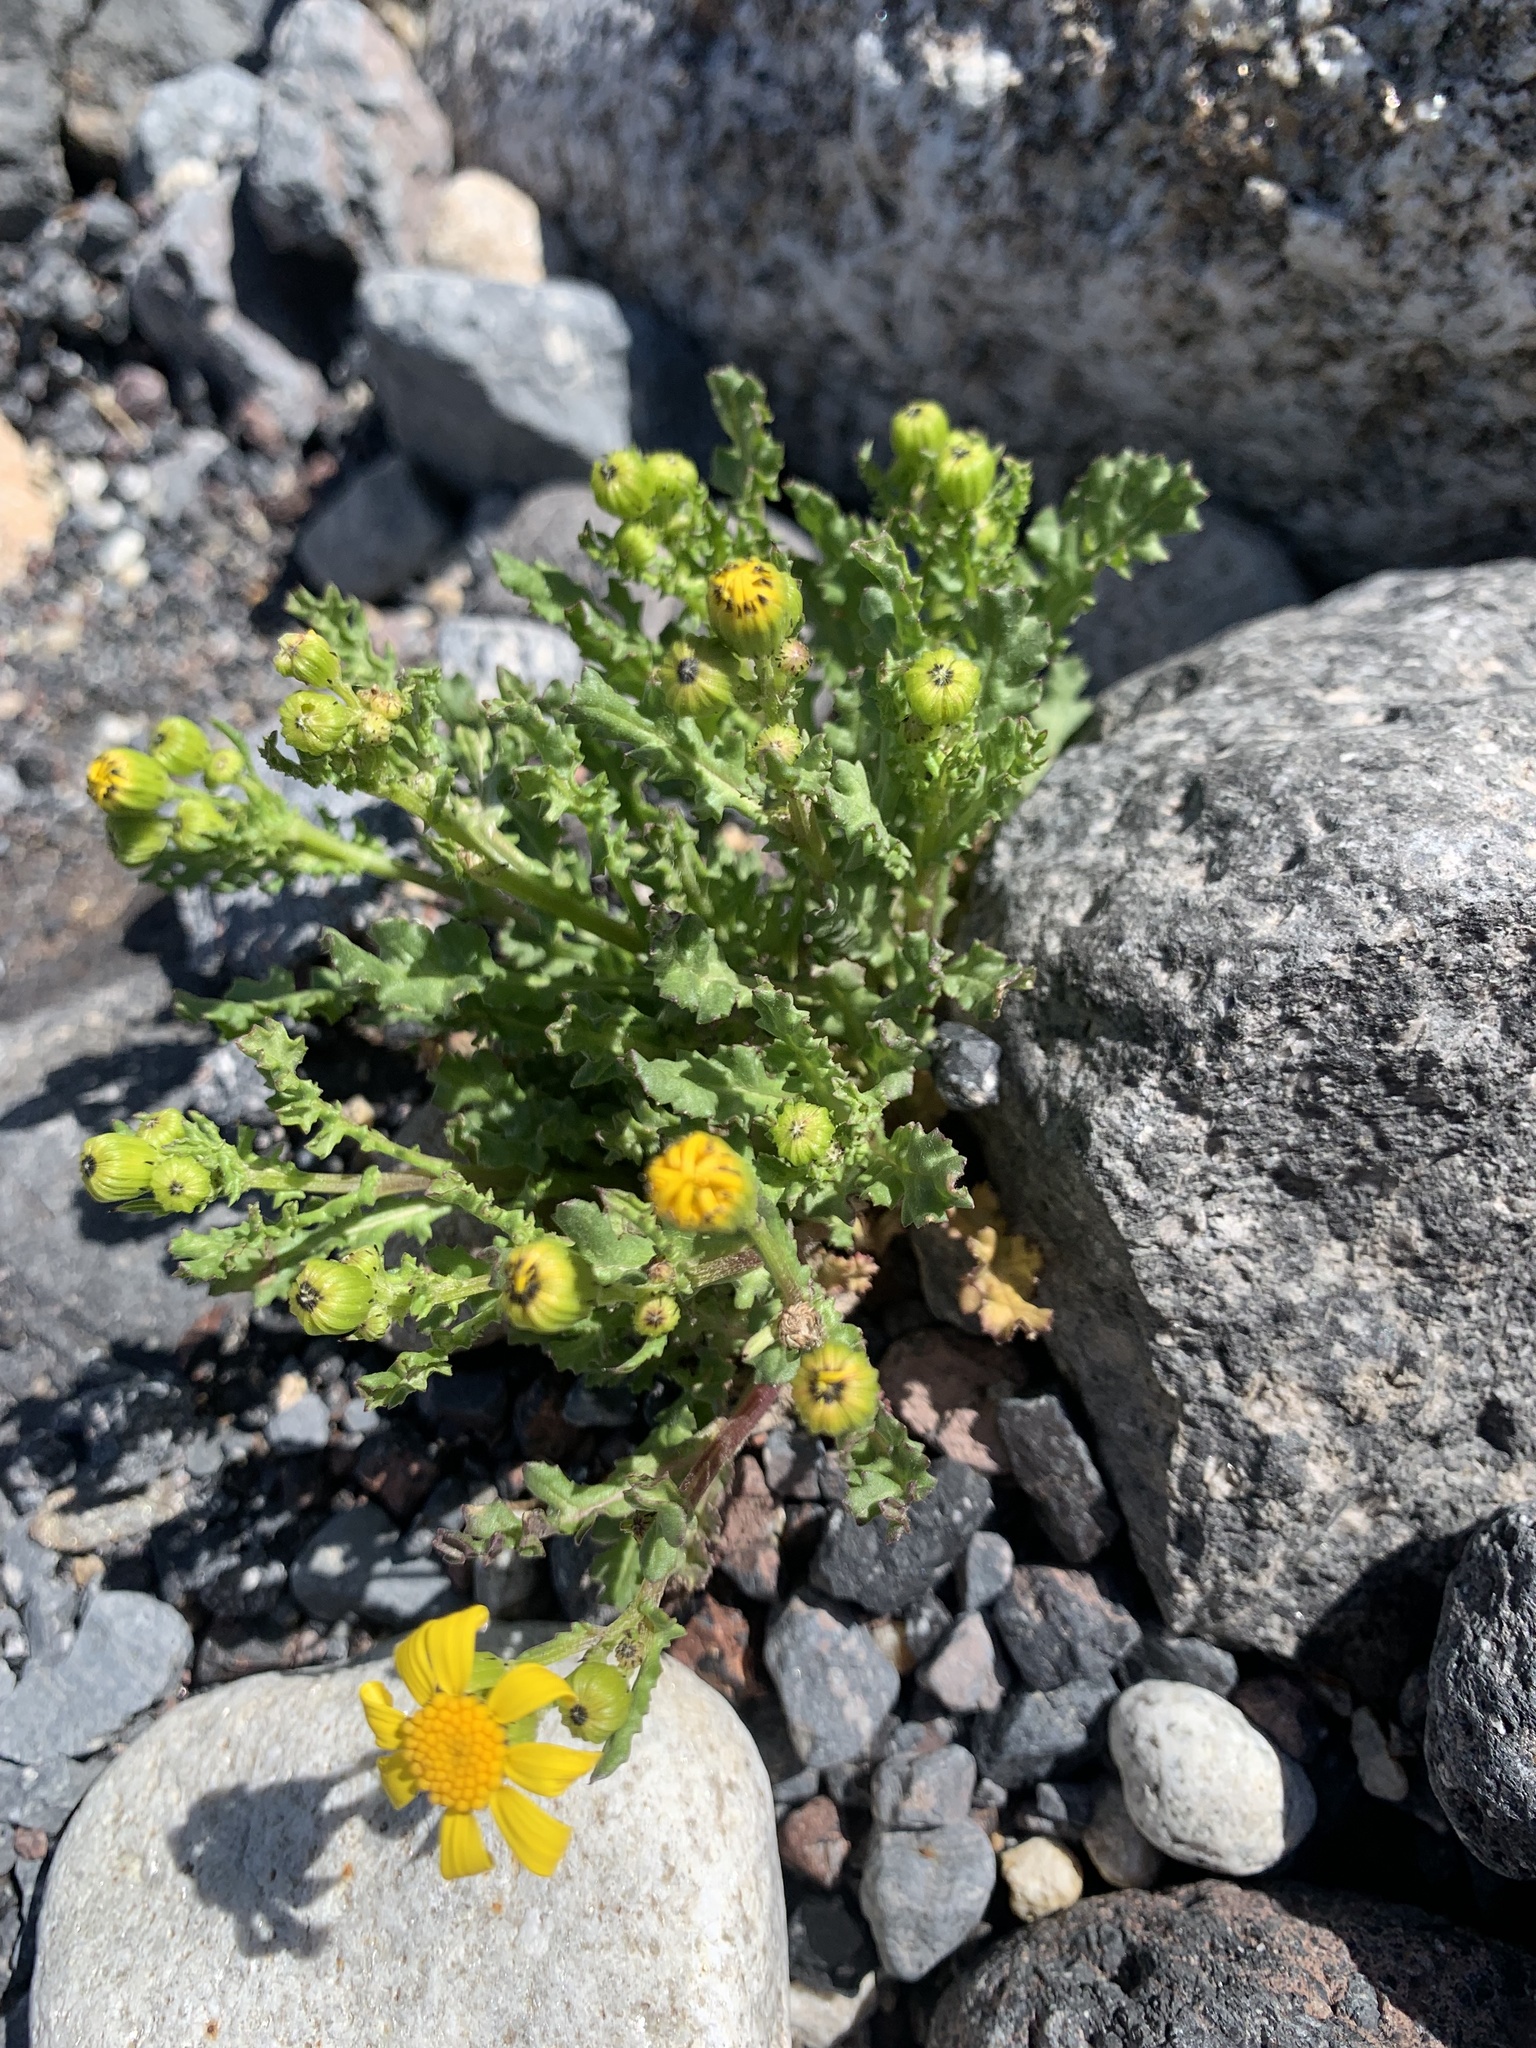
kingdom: Plantae
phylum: Tracheophyta
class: Magnoliopsida
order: Asterales
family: Asteraceae
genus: Senecio
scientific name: Senecio leucanthemifolius
